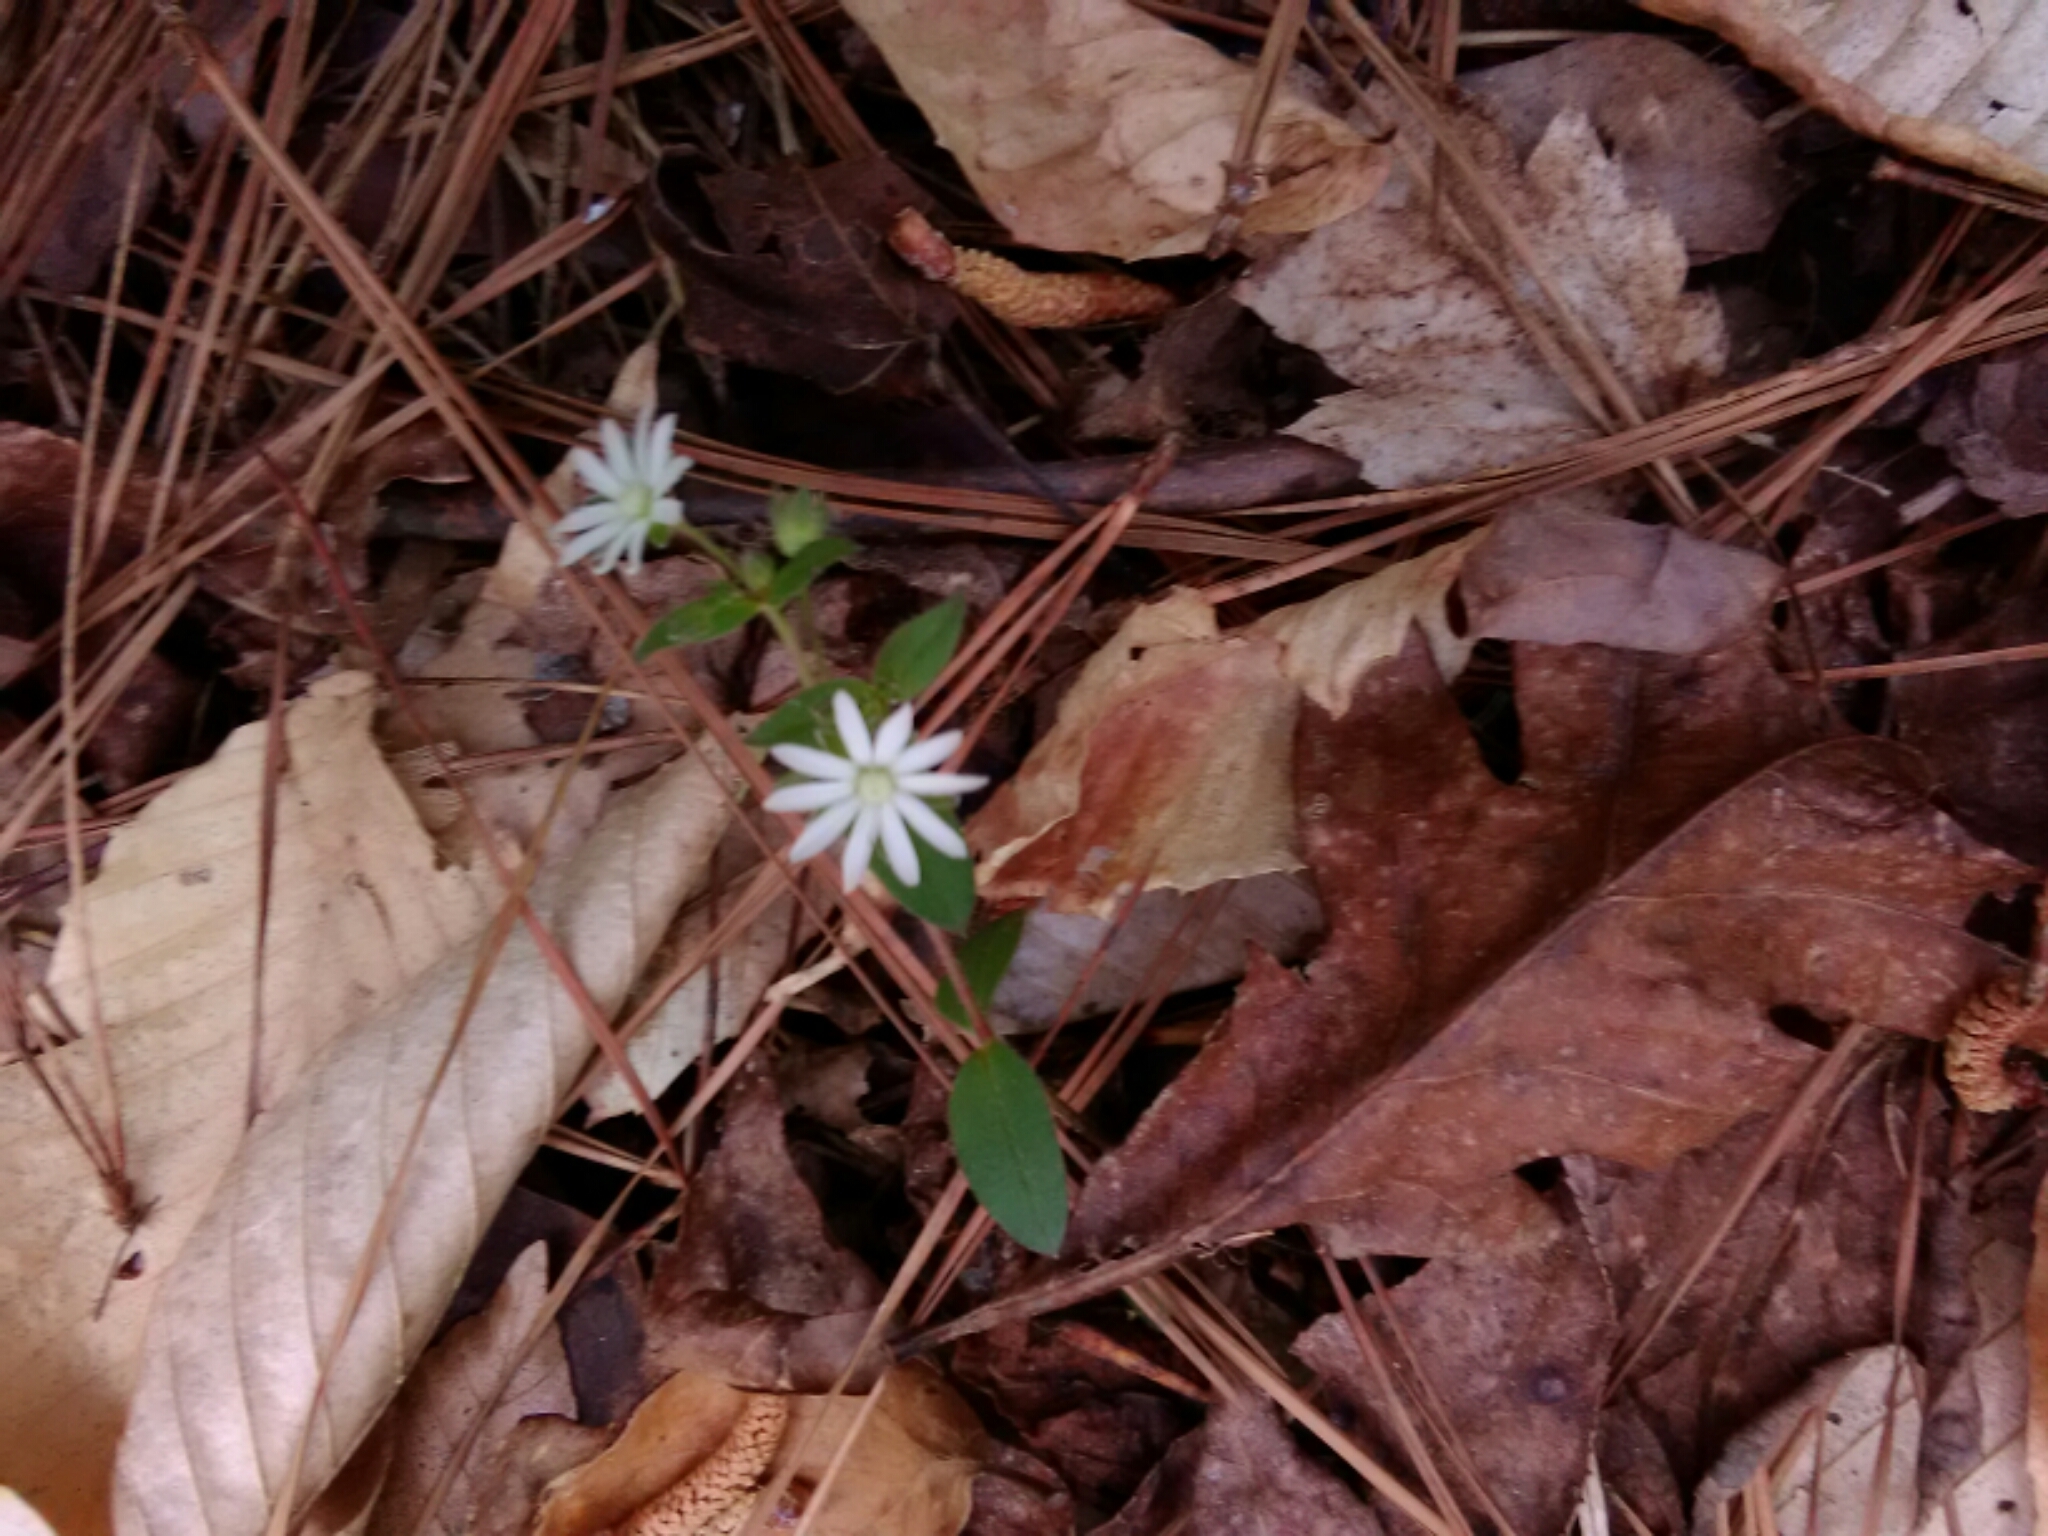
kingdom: Plantae
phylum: Tracheophyta
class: Magnoliopsida
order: Caryophyllales
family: Caryophyllaceae
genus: Stellaria
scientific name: Stellaria pubera
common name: Star chickweed
